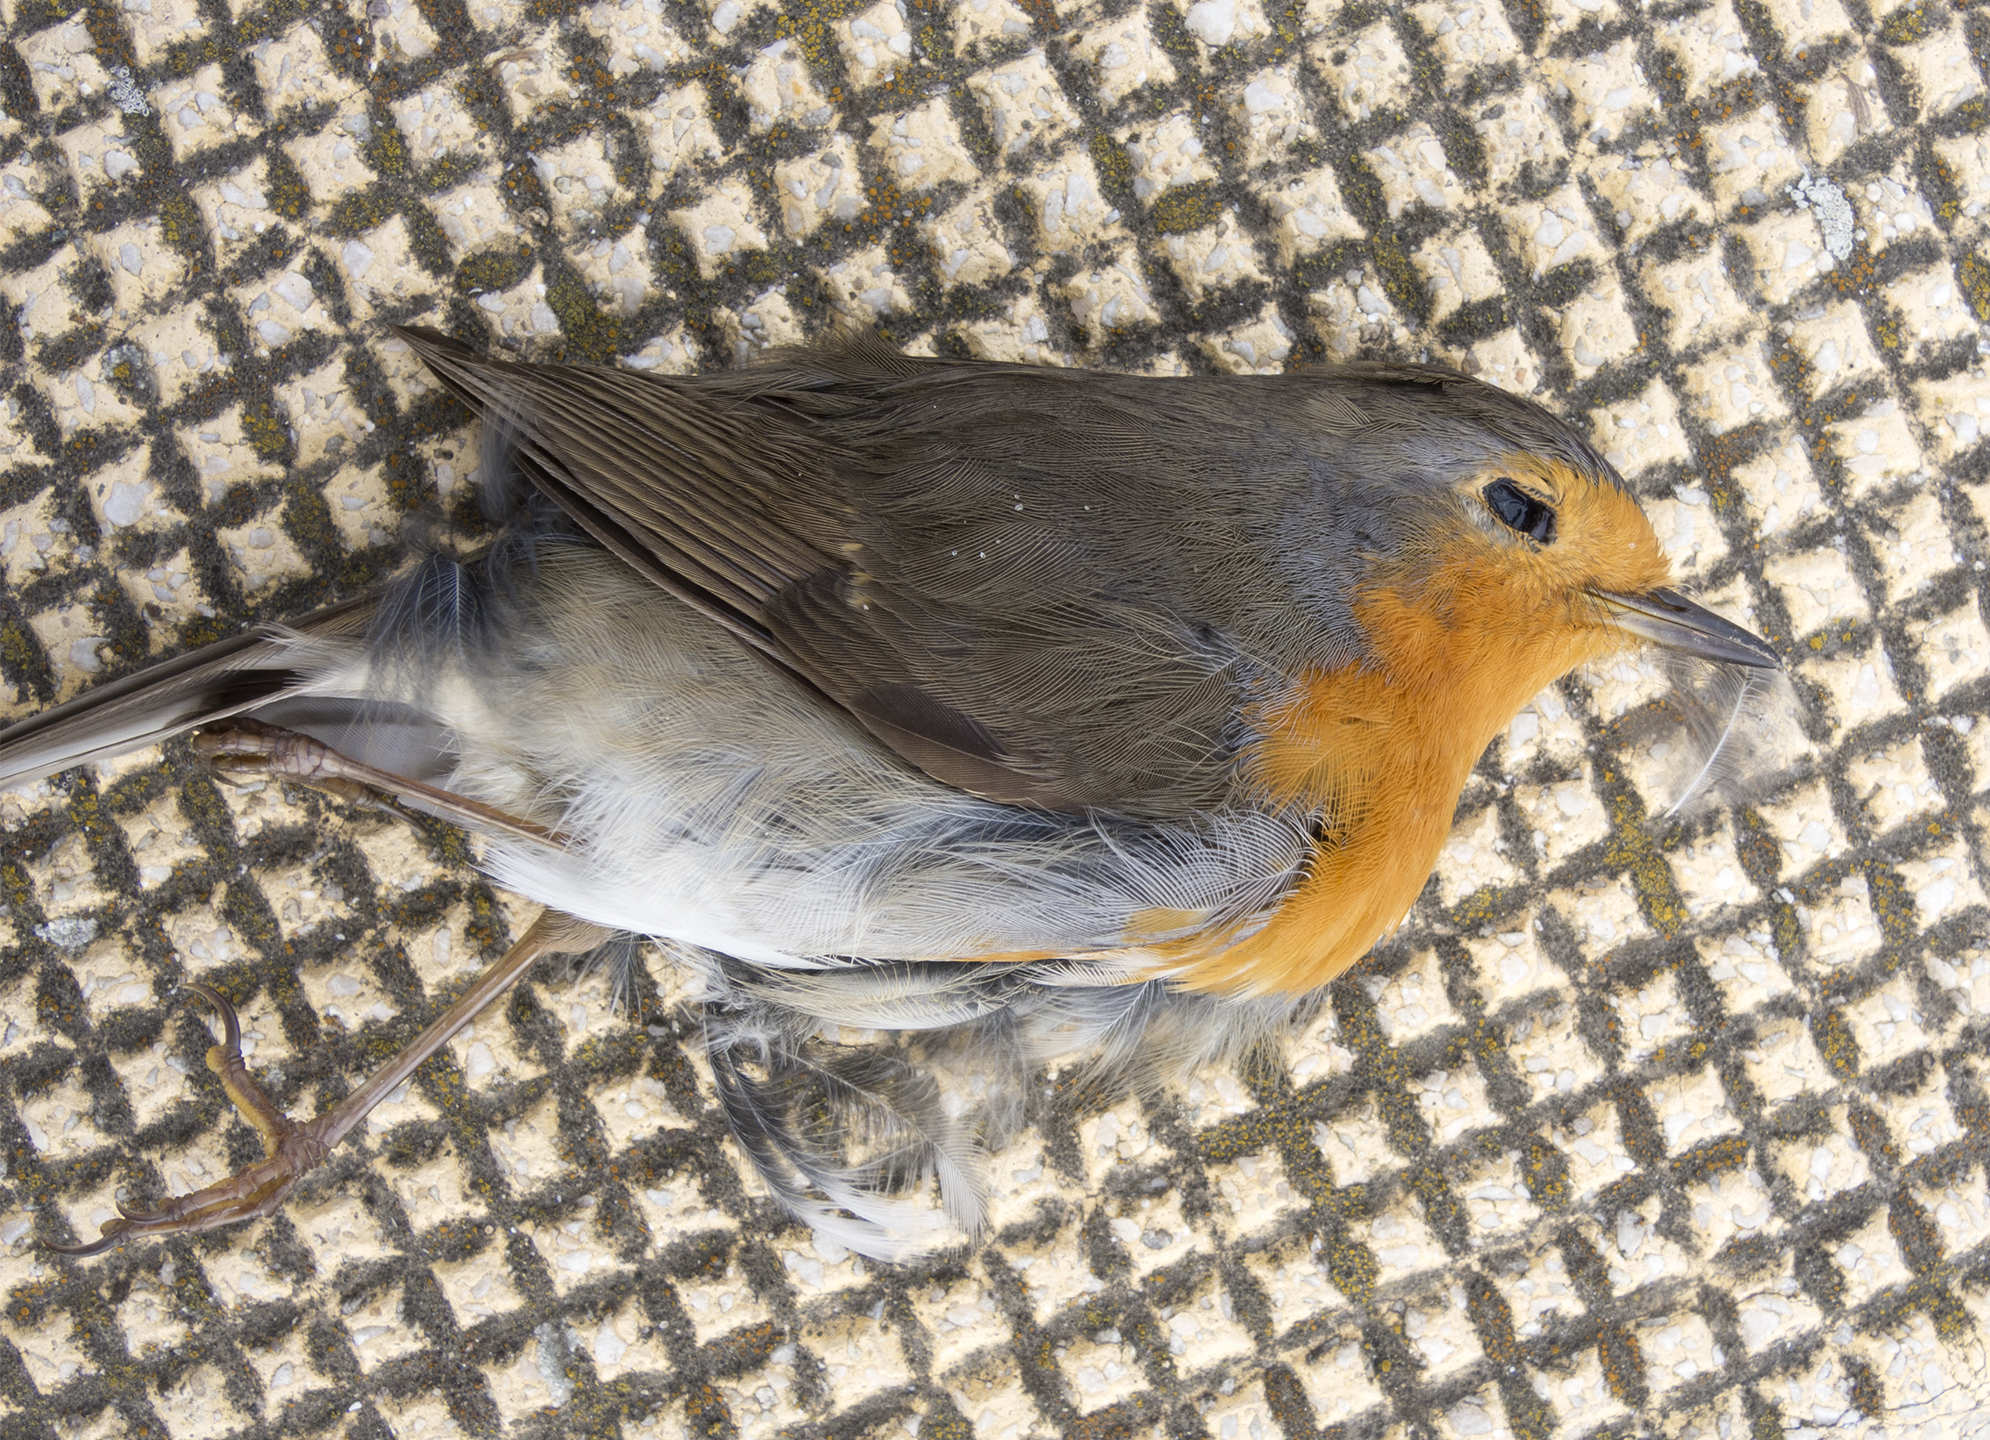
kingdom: Animalia
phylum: Chordata
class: Aves
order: Passeriformes
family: Muscicapidae
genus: Erithacus
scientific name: Erithacus rubecula
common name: European robin
